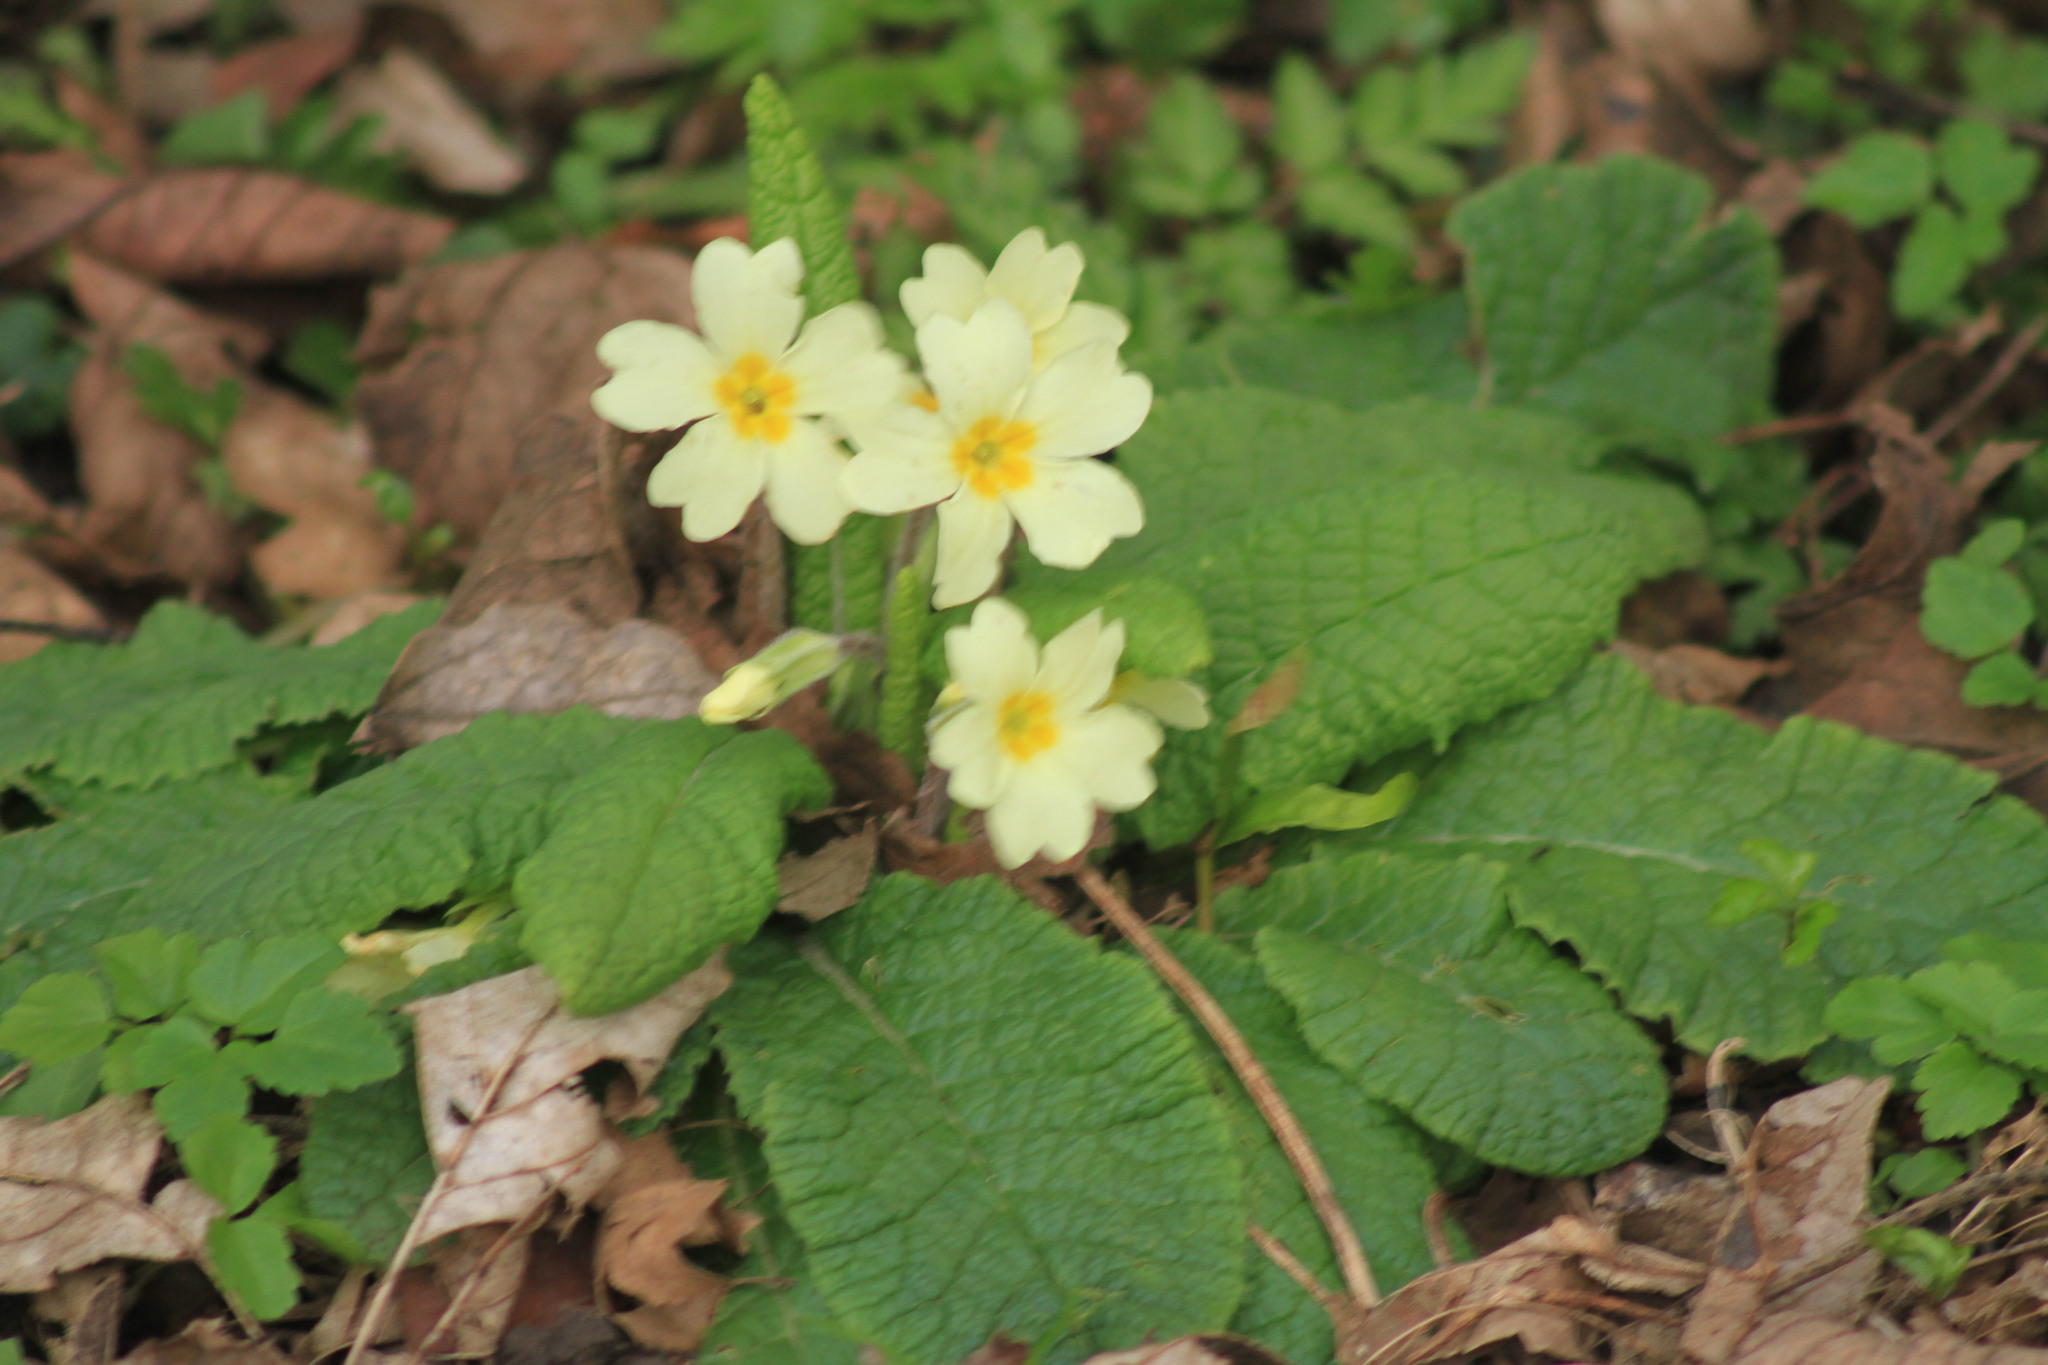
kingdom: Plantae
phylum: Tracheophyta
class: Magnoliopsida
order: Ericales
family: Primulaceae
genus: Primula
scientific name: Primula vulgaris
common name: Primrose
